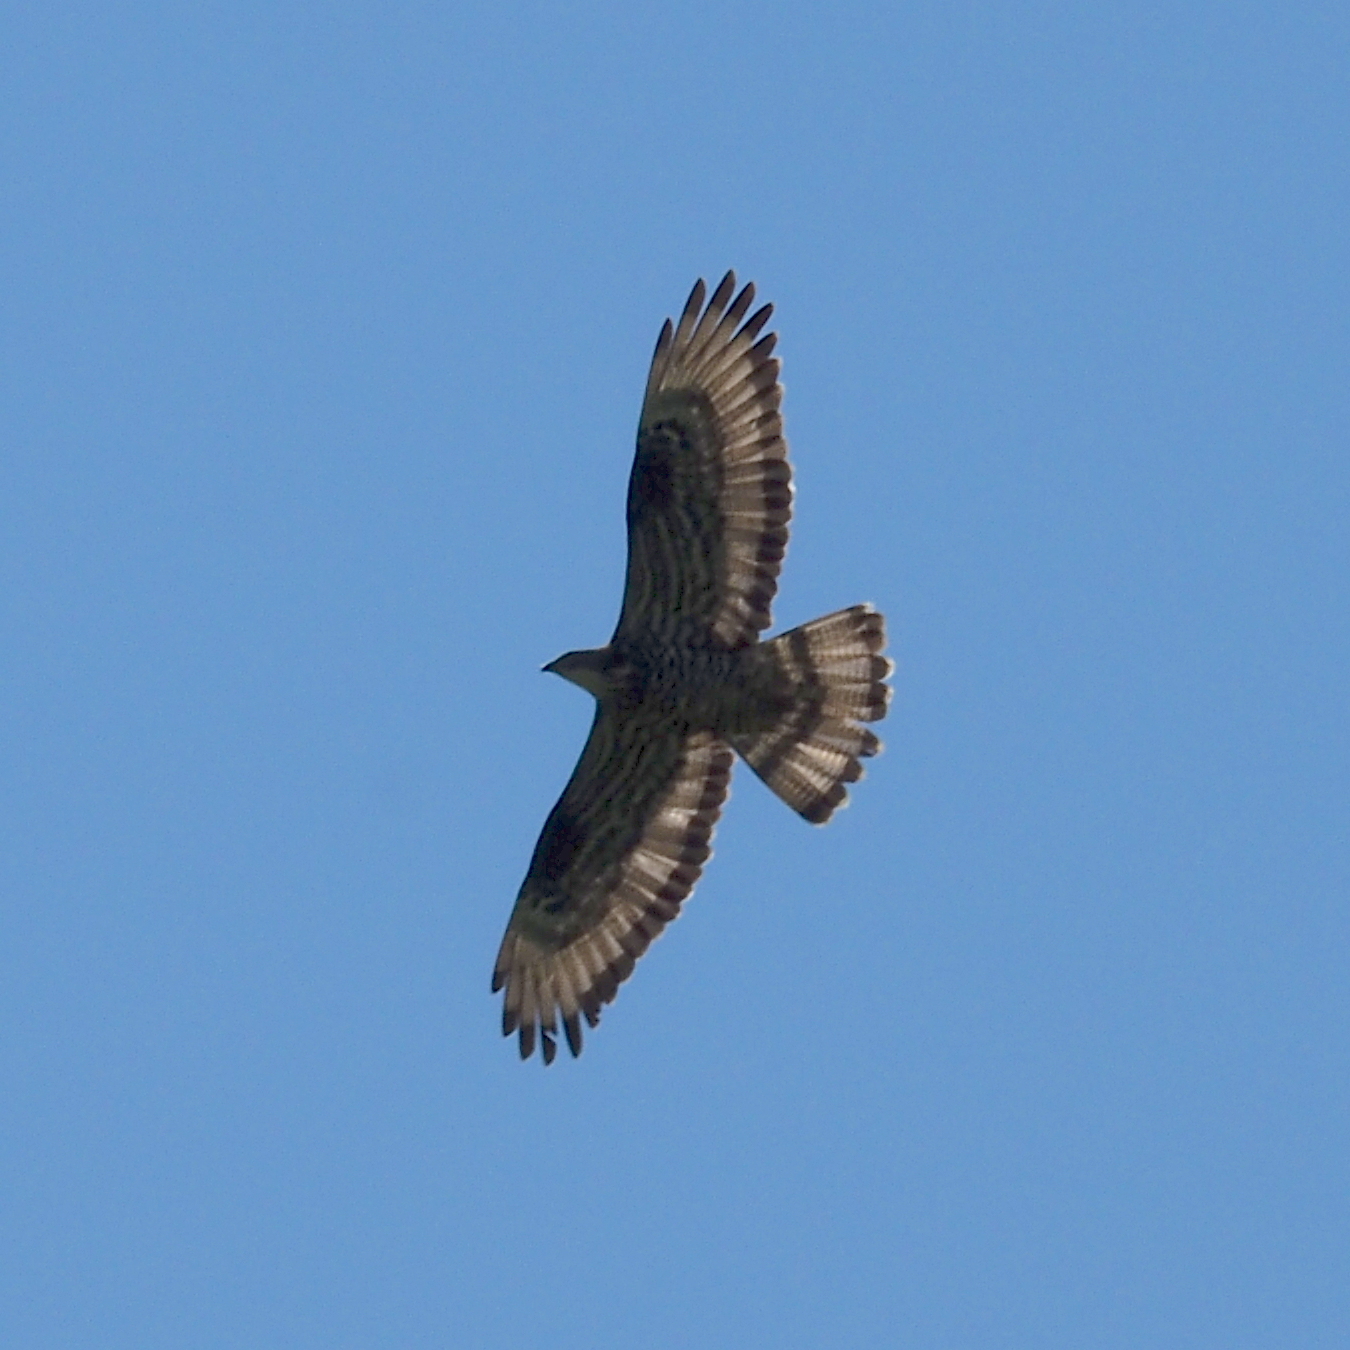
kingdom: Animalia
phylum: Chordata
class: Aves
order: Accipitriformes
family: Accipitridae
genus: Pernis
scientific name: Pernis apivorus
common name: European honey buzzard
